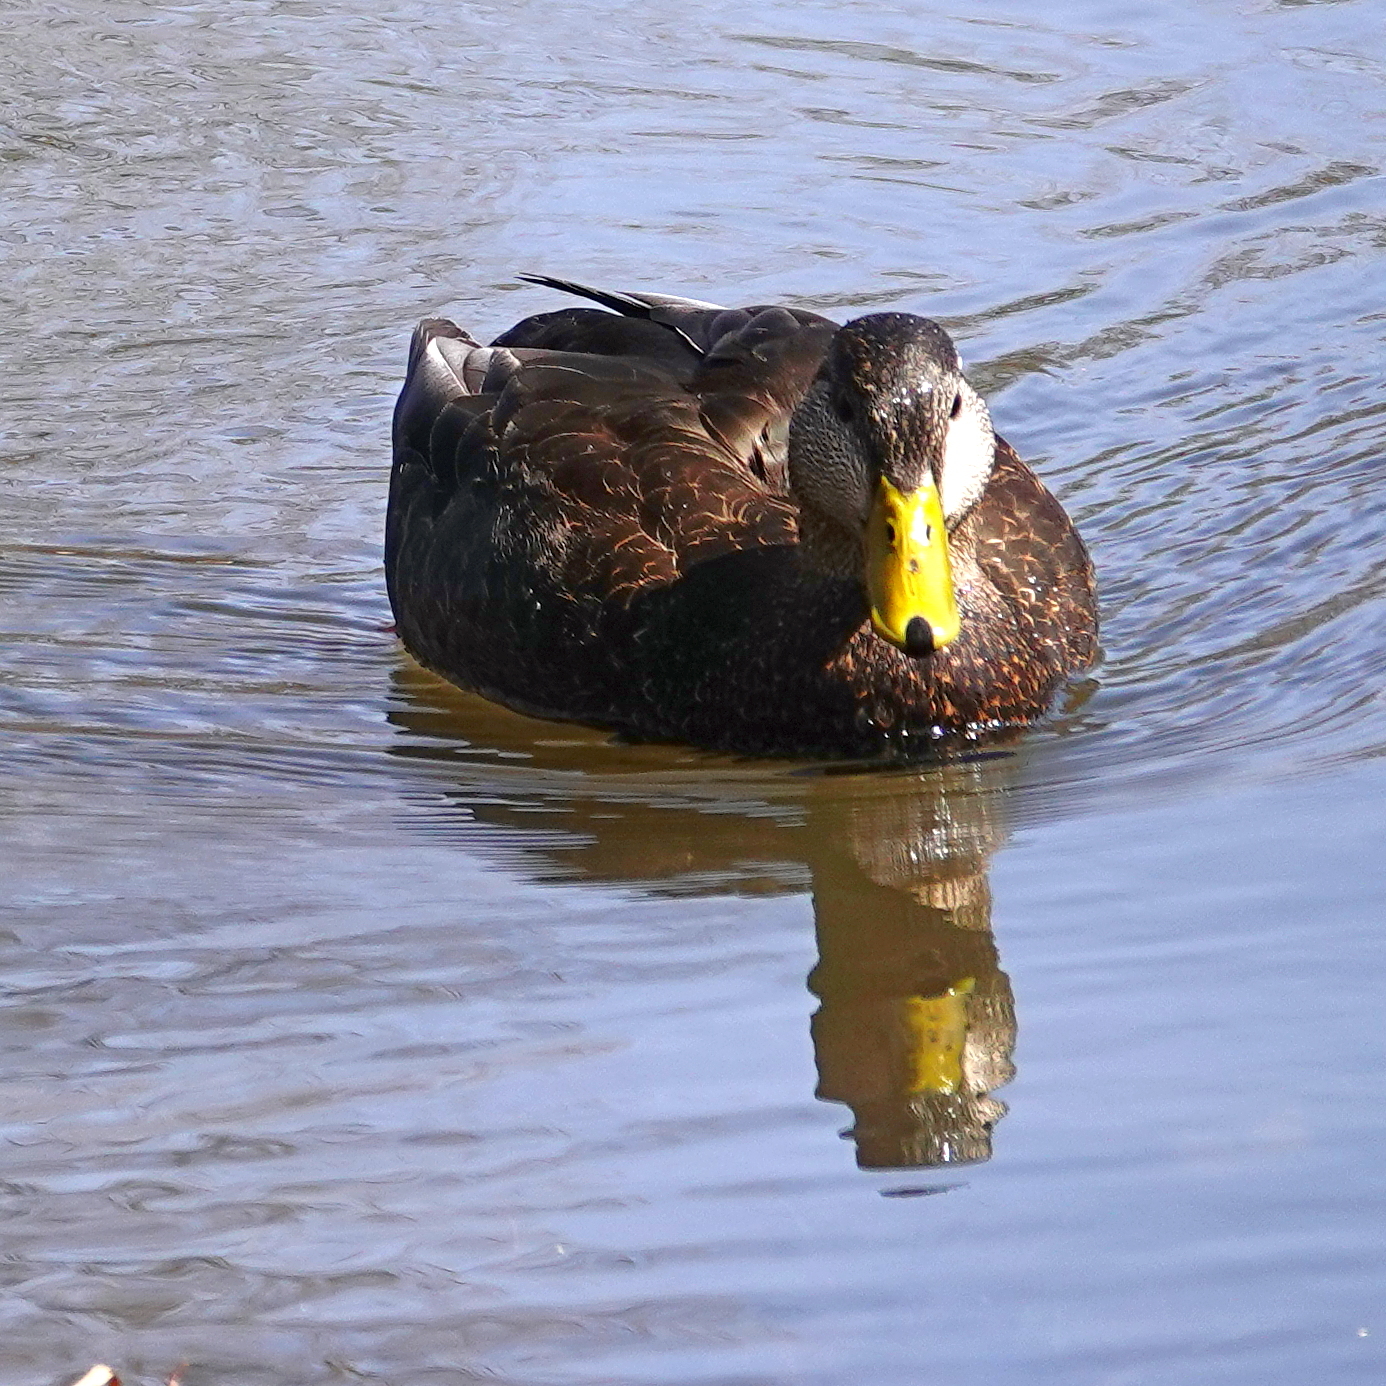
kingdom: Animalia
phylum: Chordata
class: Aves
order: Anseriformes
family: Anatidae
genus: Anas
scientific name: Anas rubripes
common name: American black duck
